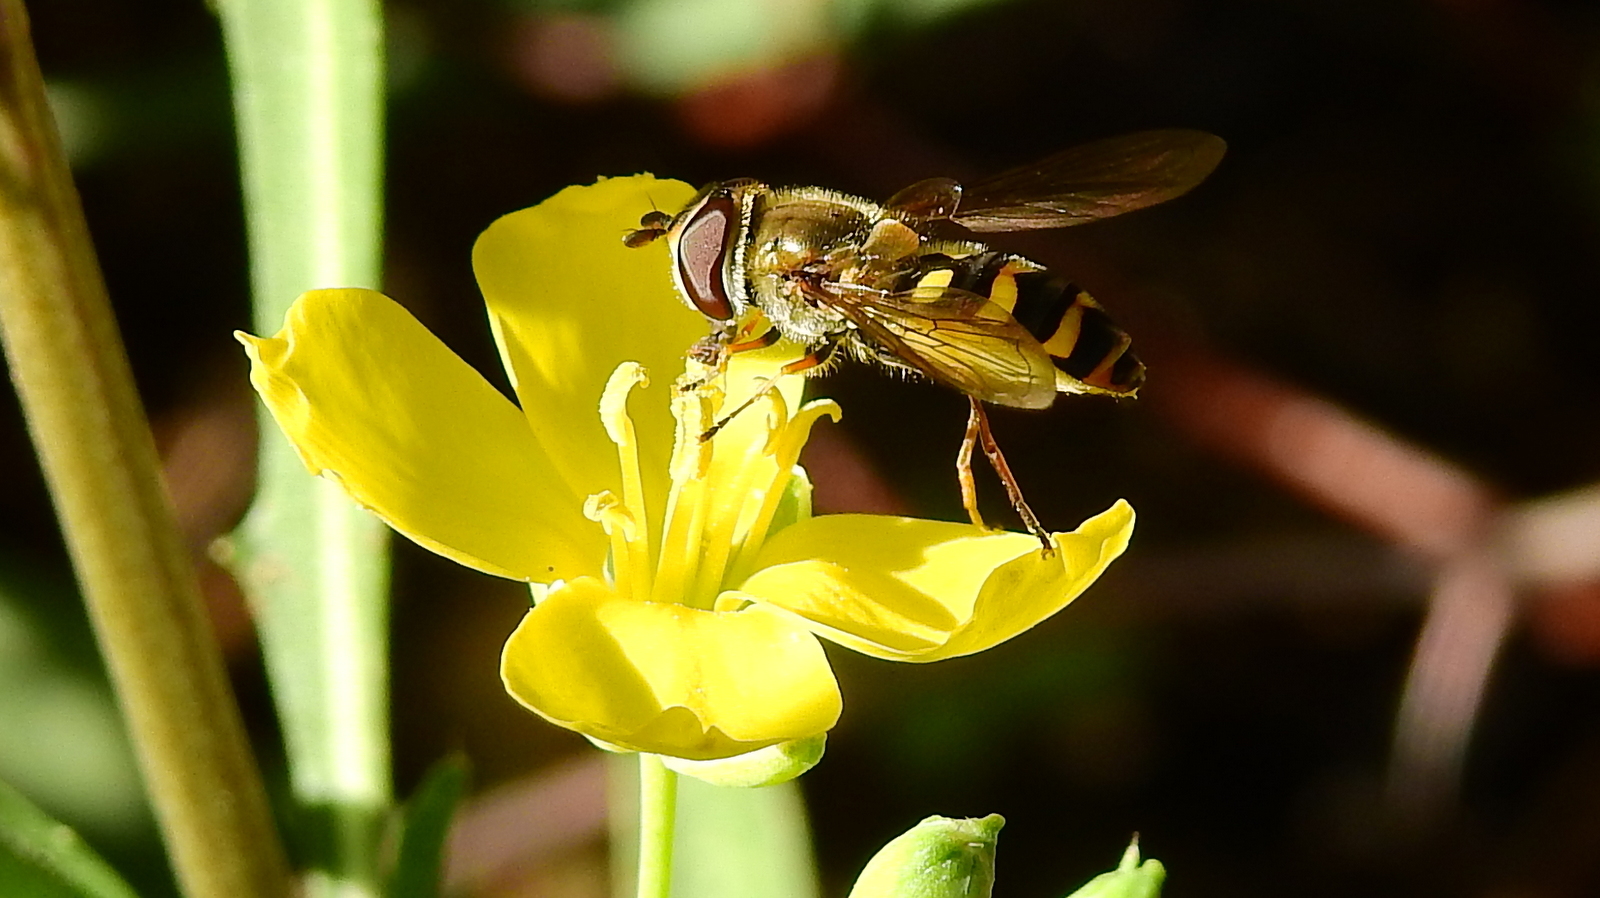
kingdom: Plantae
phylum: Tracheophyta
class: Magnoliopsida
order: Brassicales
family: Brassicaceae
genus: Diplotaxis
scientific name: Diplotaxis tenuifolia
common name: Perennial wall-rocket
